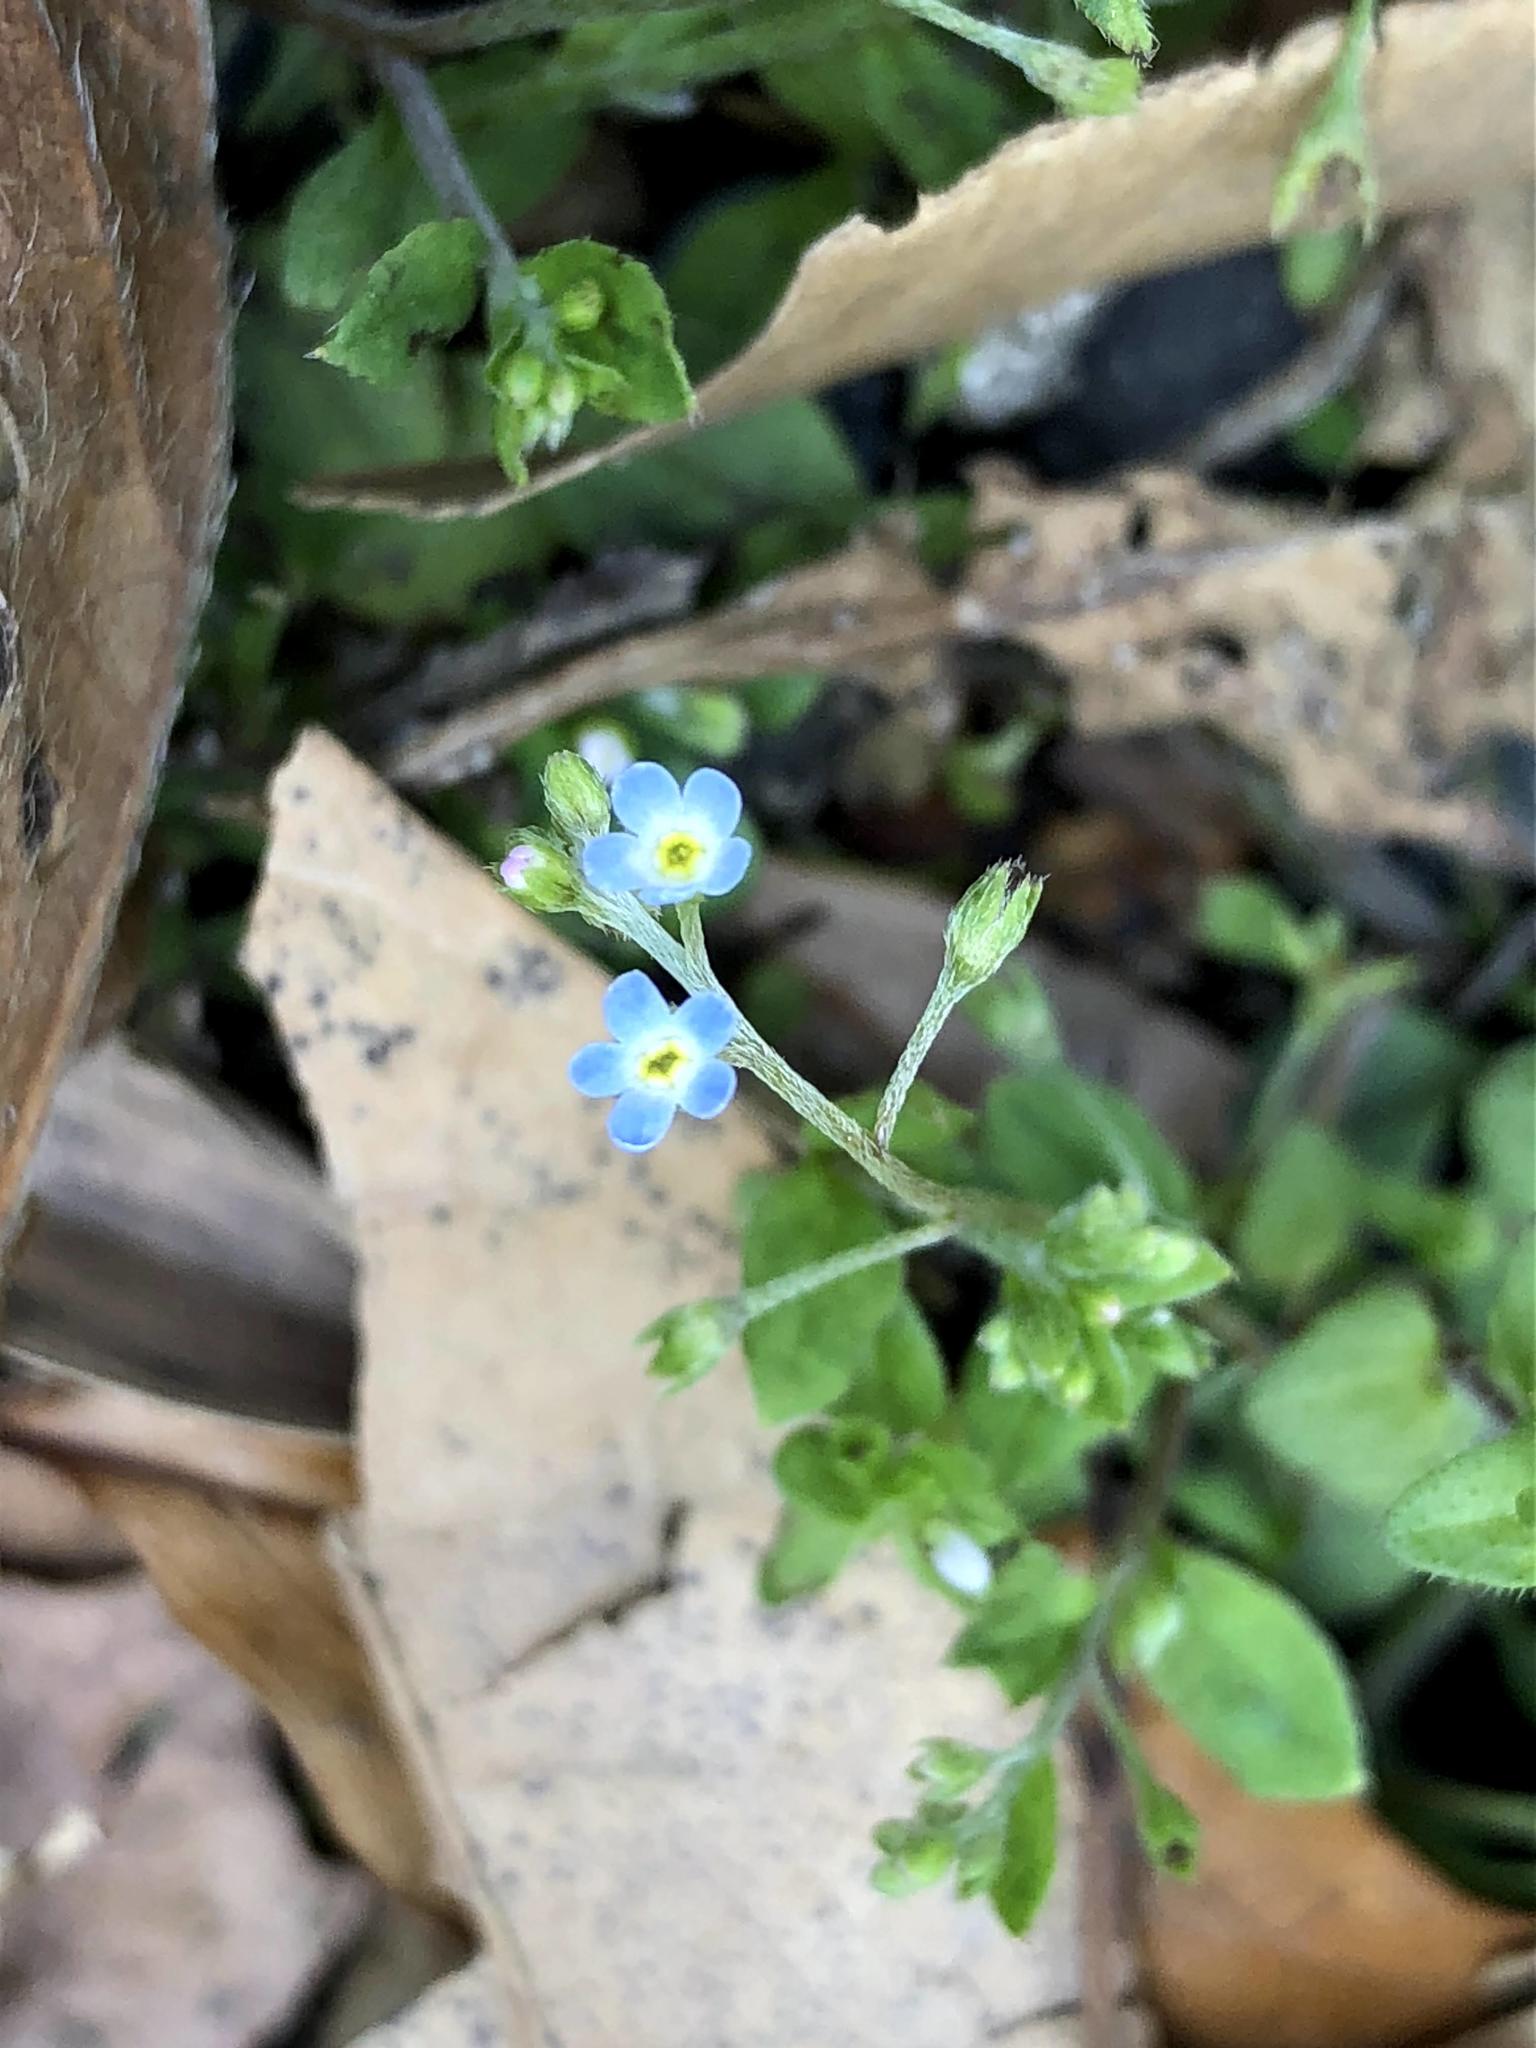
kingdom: Plantae
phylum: Tracheophyta
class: Magnoliopsida
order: Boraginales
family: Boraginaceae
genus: Trigonotis
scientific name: Trigonotis peduncularis
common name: Cucumber herb
